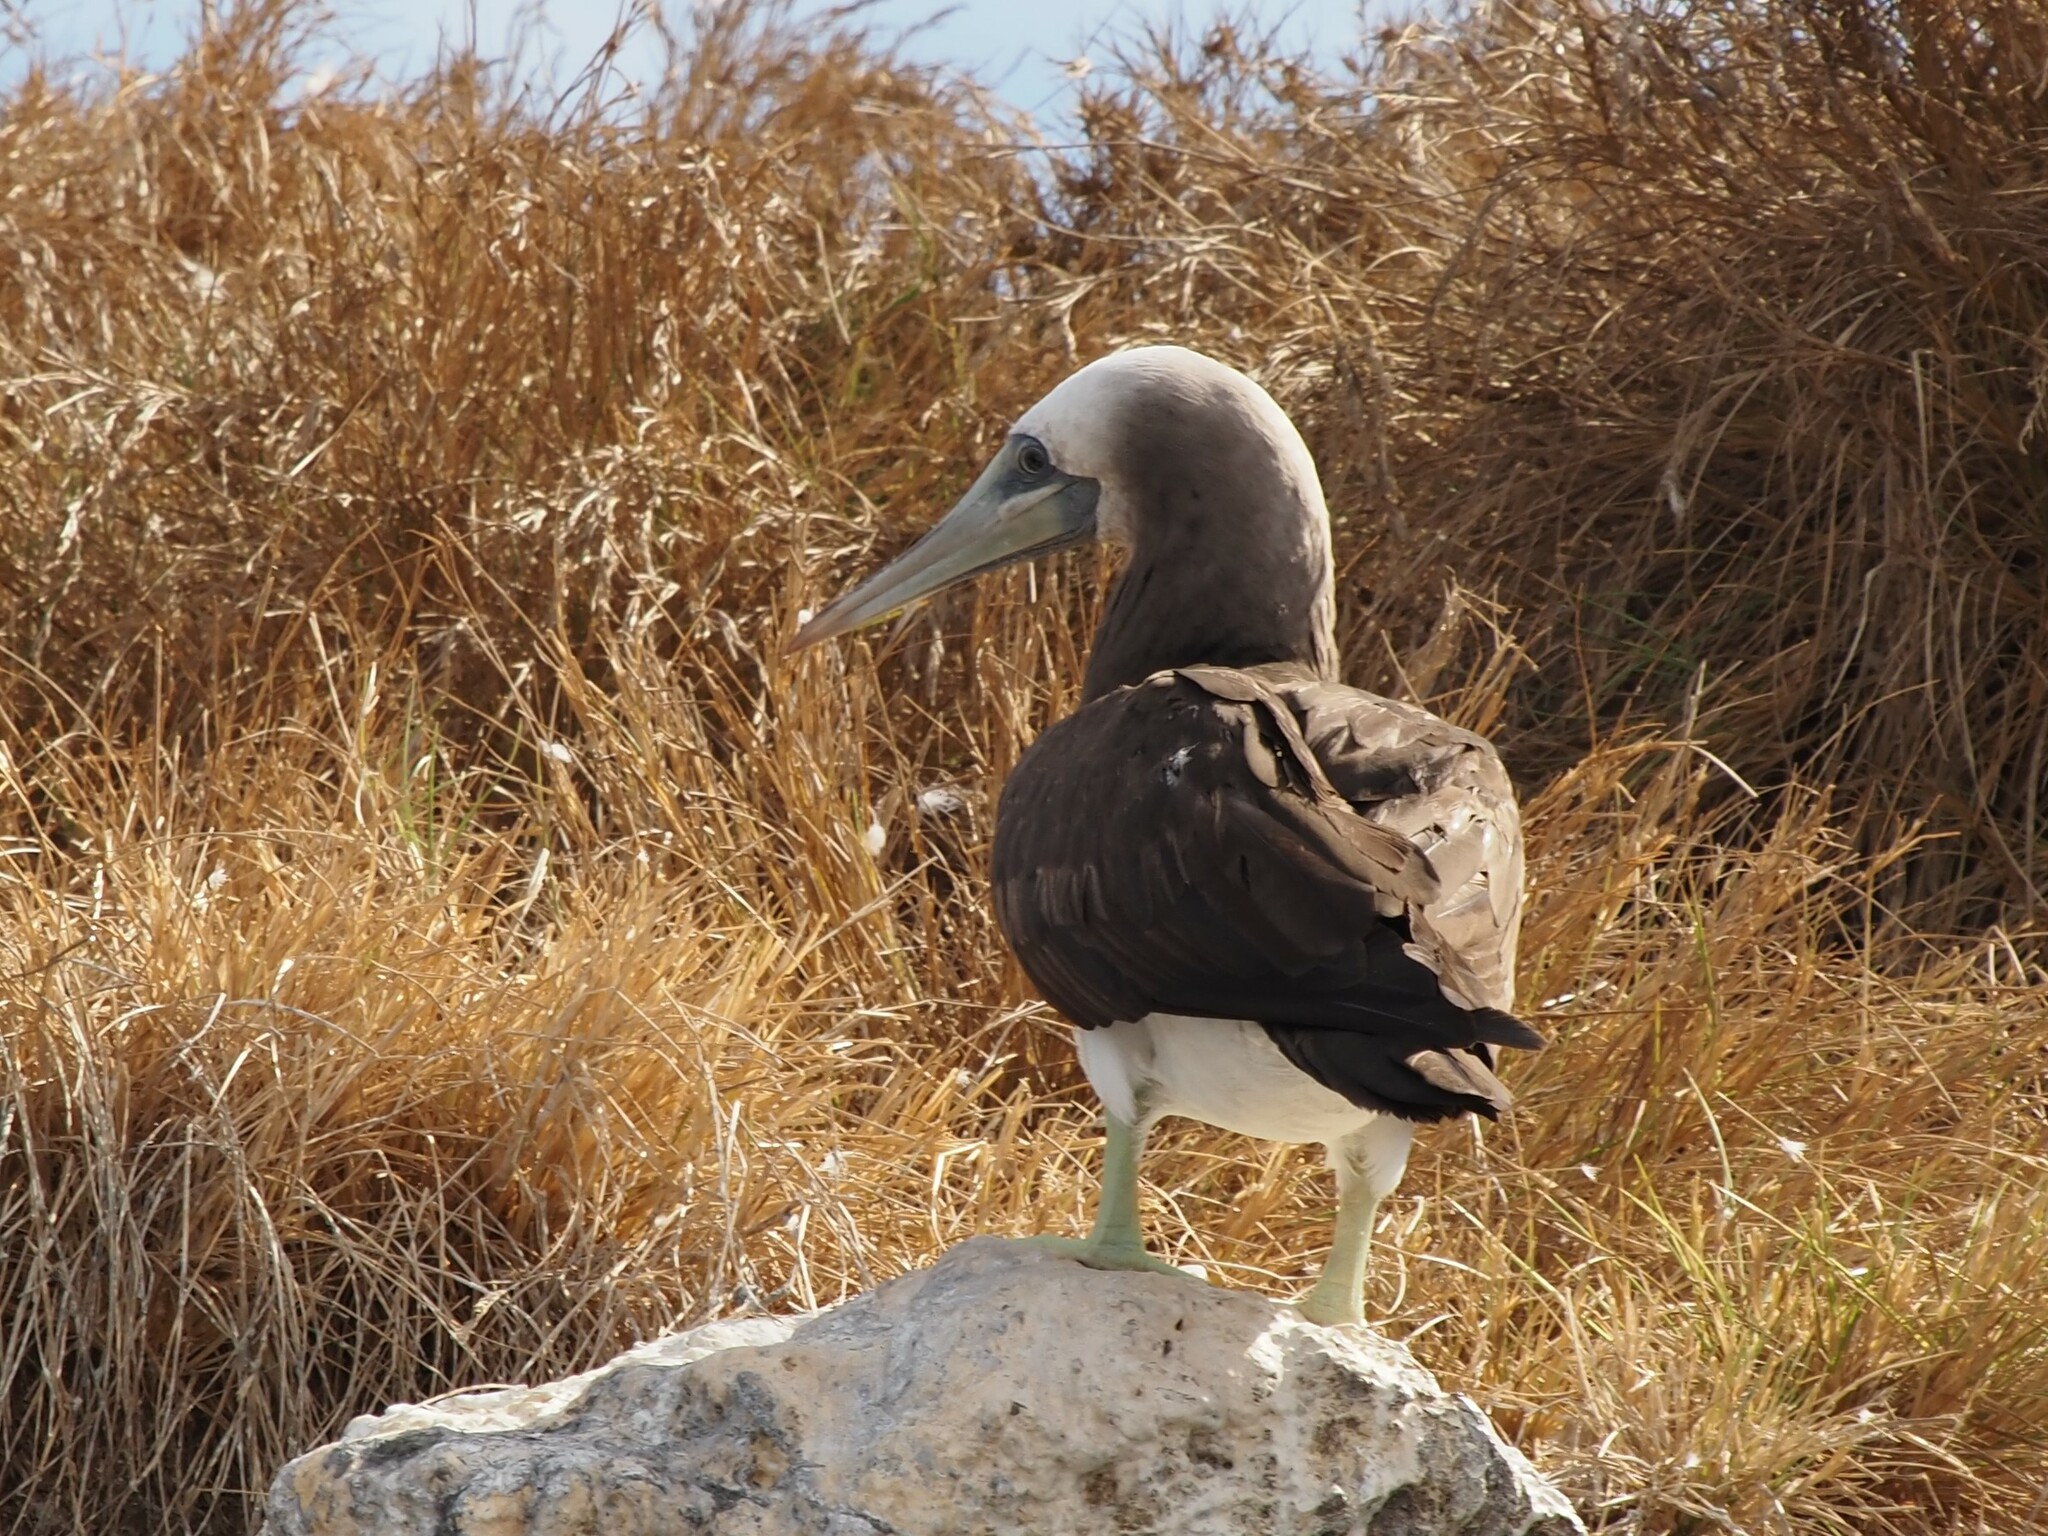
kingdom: Animalia
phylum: Chordata
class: Aves
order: Suliformes
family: Sulidae
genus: Sula
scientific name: Sula leucogaster
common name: Brown booby
